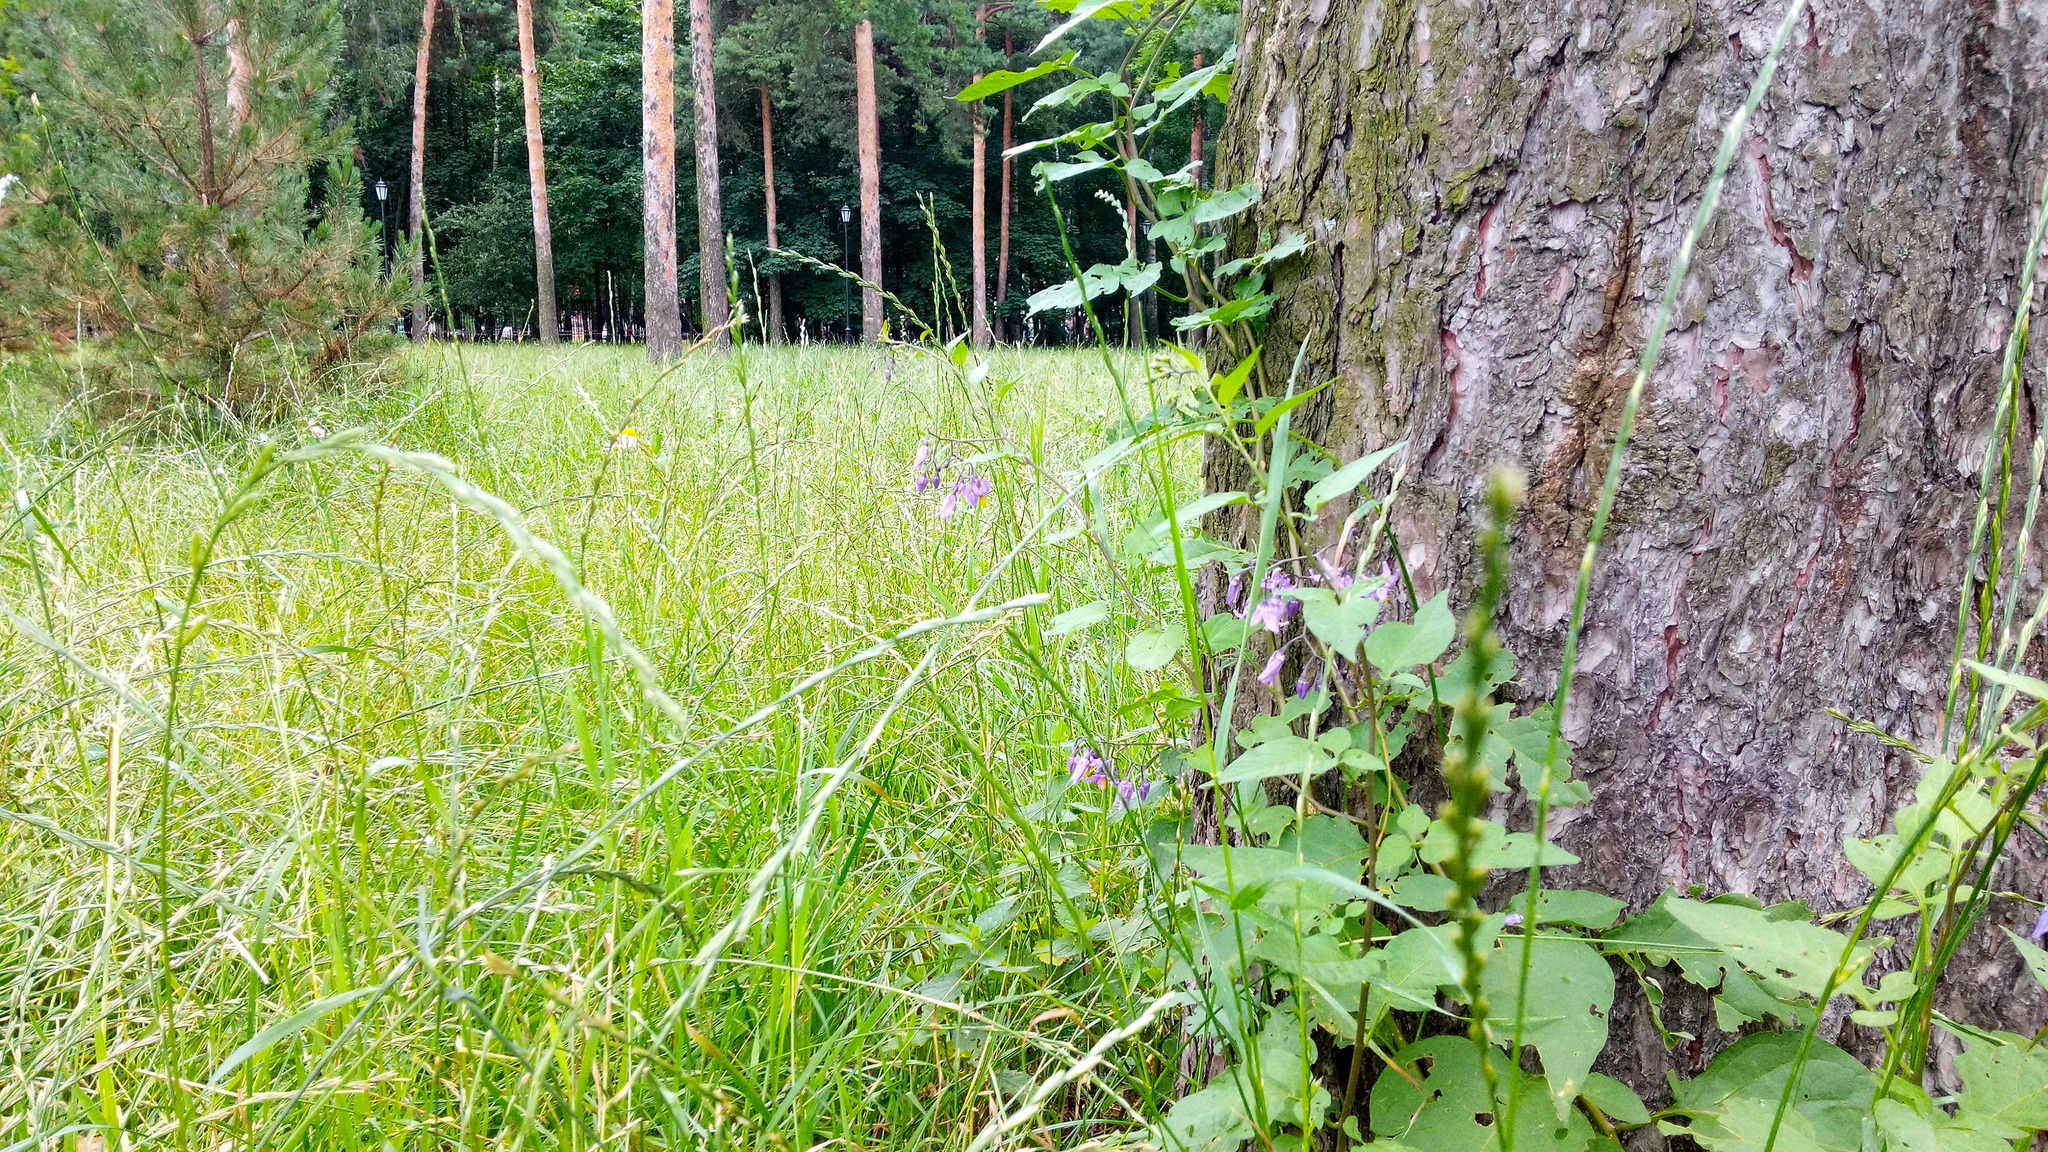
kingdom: Plantae
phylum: Tracheophyta
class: Magnoliopsida
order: Solanales
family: Solanaceae
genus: Solanum
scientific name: Solanum dulcamara
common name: Climbing nightshade
